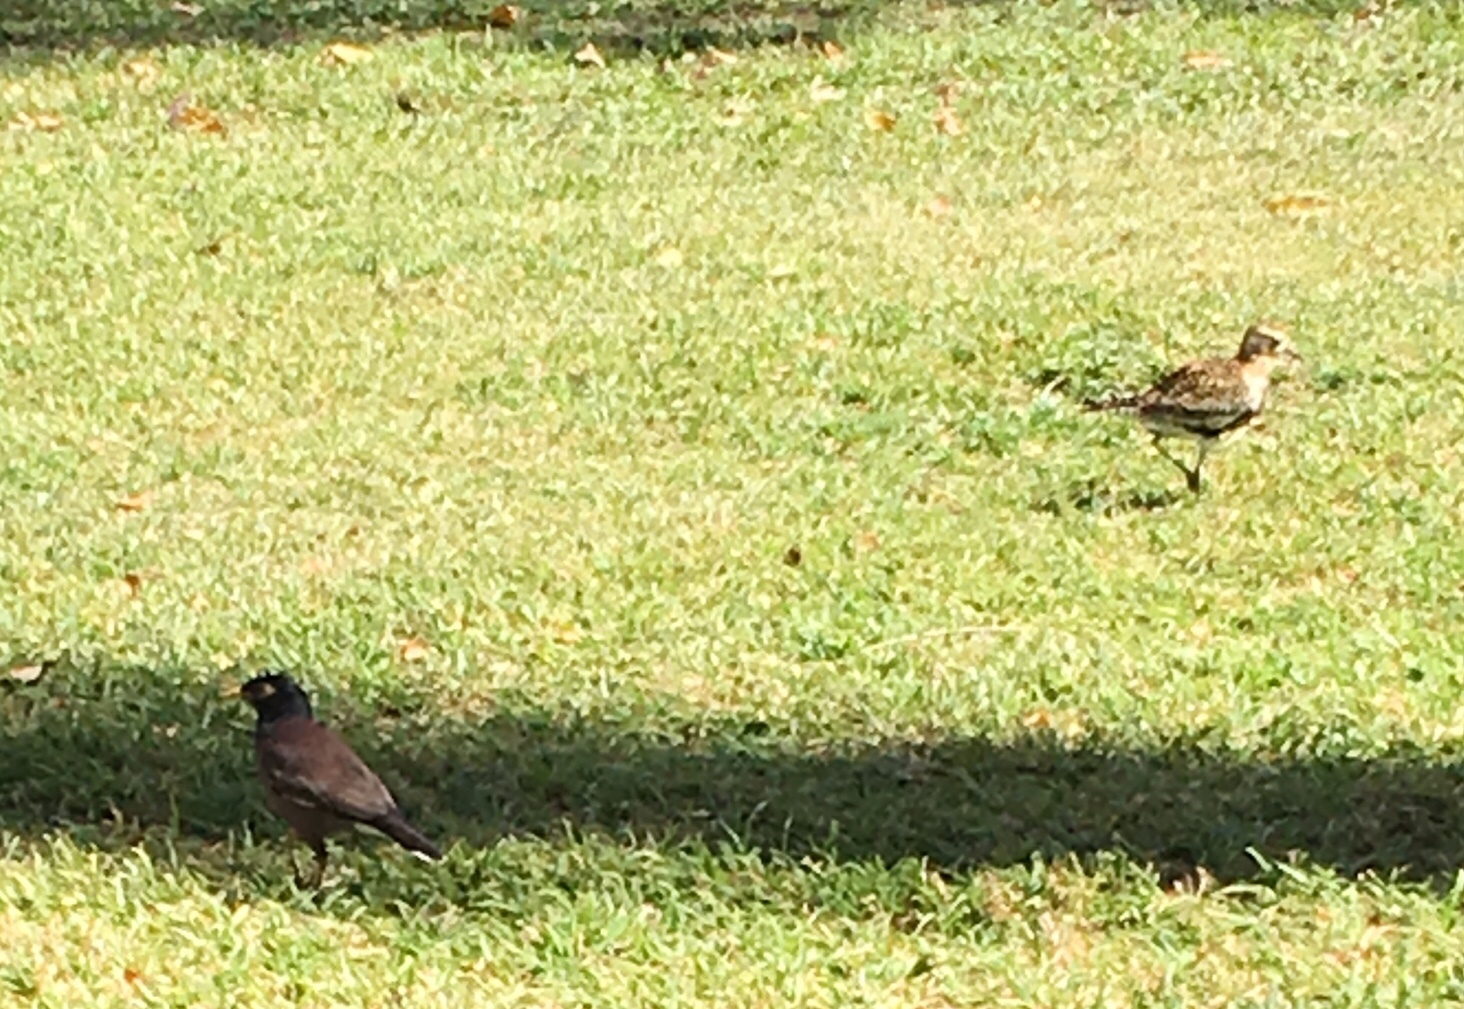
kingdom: Animalia
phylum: Chordata
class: Aves
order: Passeriformes
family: Sturnidae
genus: Acridotheres
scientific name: Acridotheres tristis
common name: Common myna
